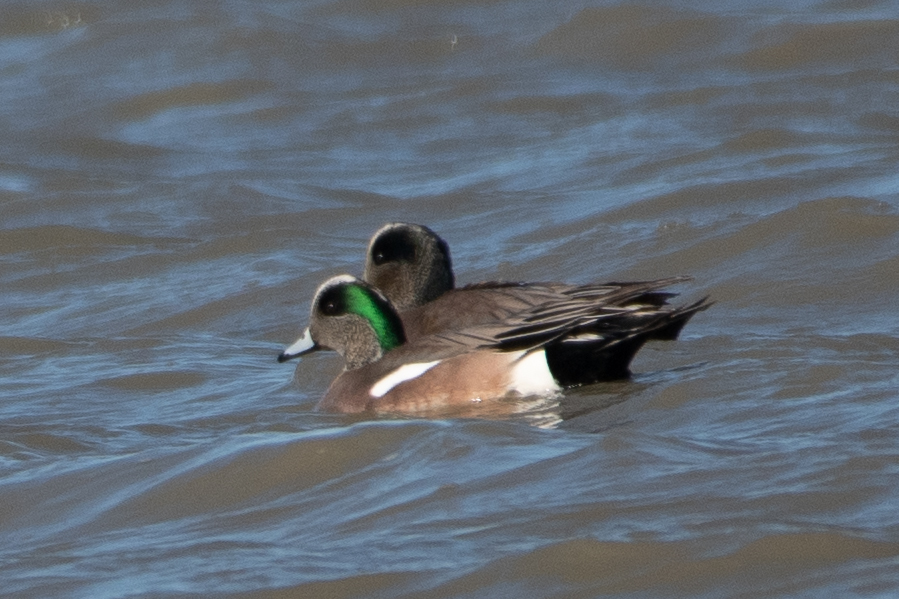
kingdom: Animalia
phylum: Chordata
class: Aves
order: Anseriformes
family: Anatidae
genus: Mareca
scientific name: Mareca americana
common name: American wigeon
